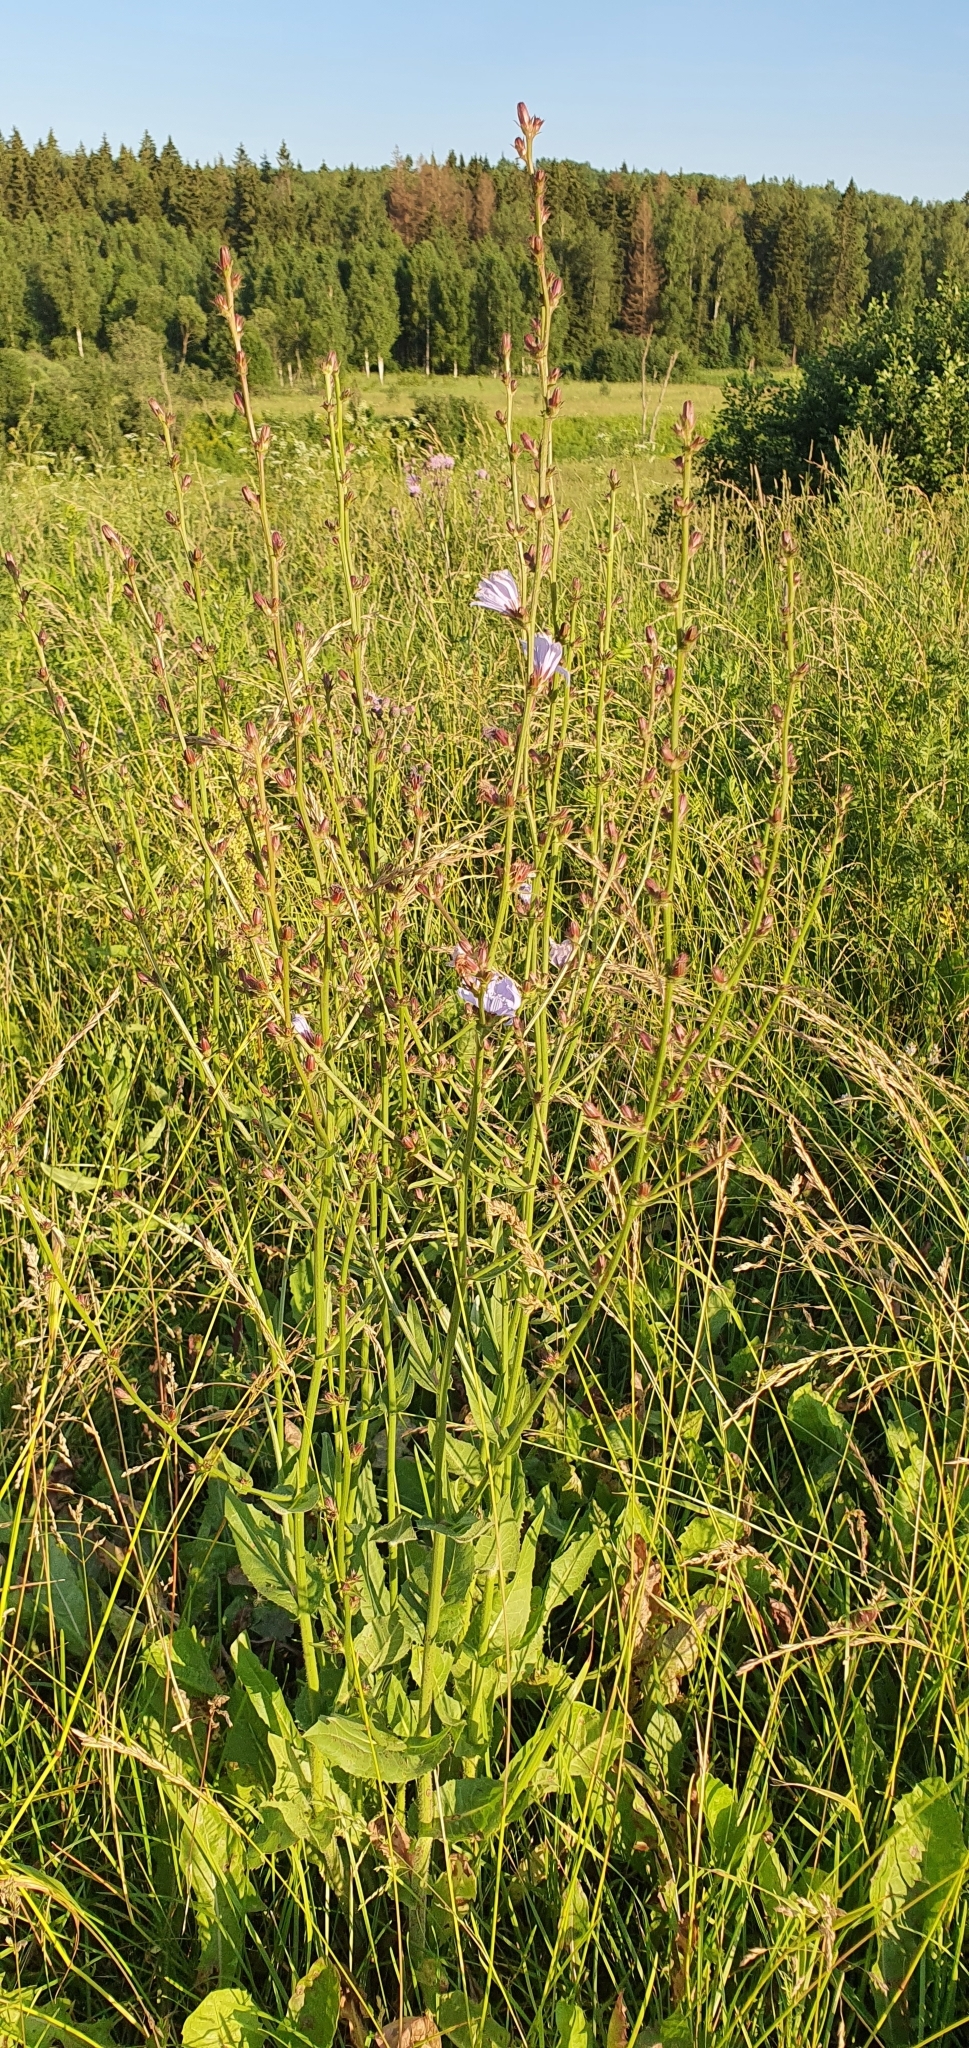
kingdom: Plantae
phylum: Tracheophyta
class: Magnoliopsida
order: Asterales
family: Asteraceae
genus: Cichorium
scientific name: Cichorium intybus
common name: Chicory
